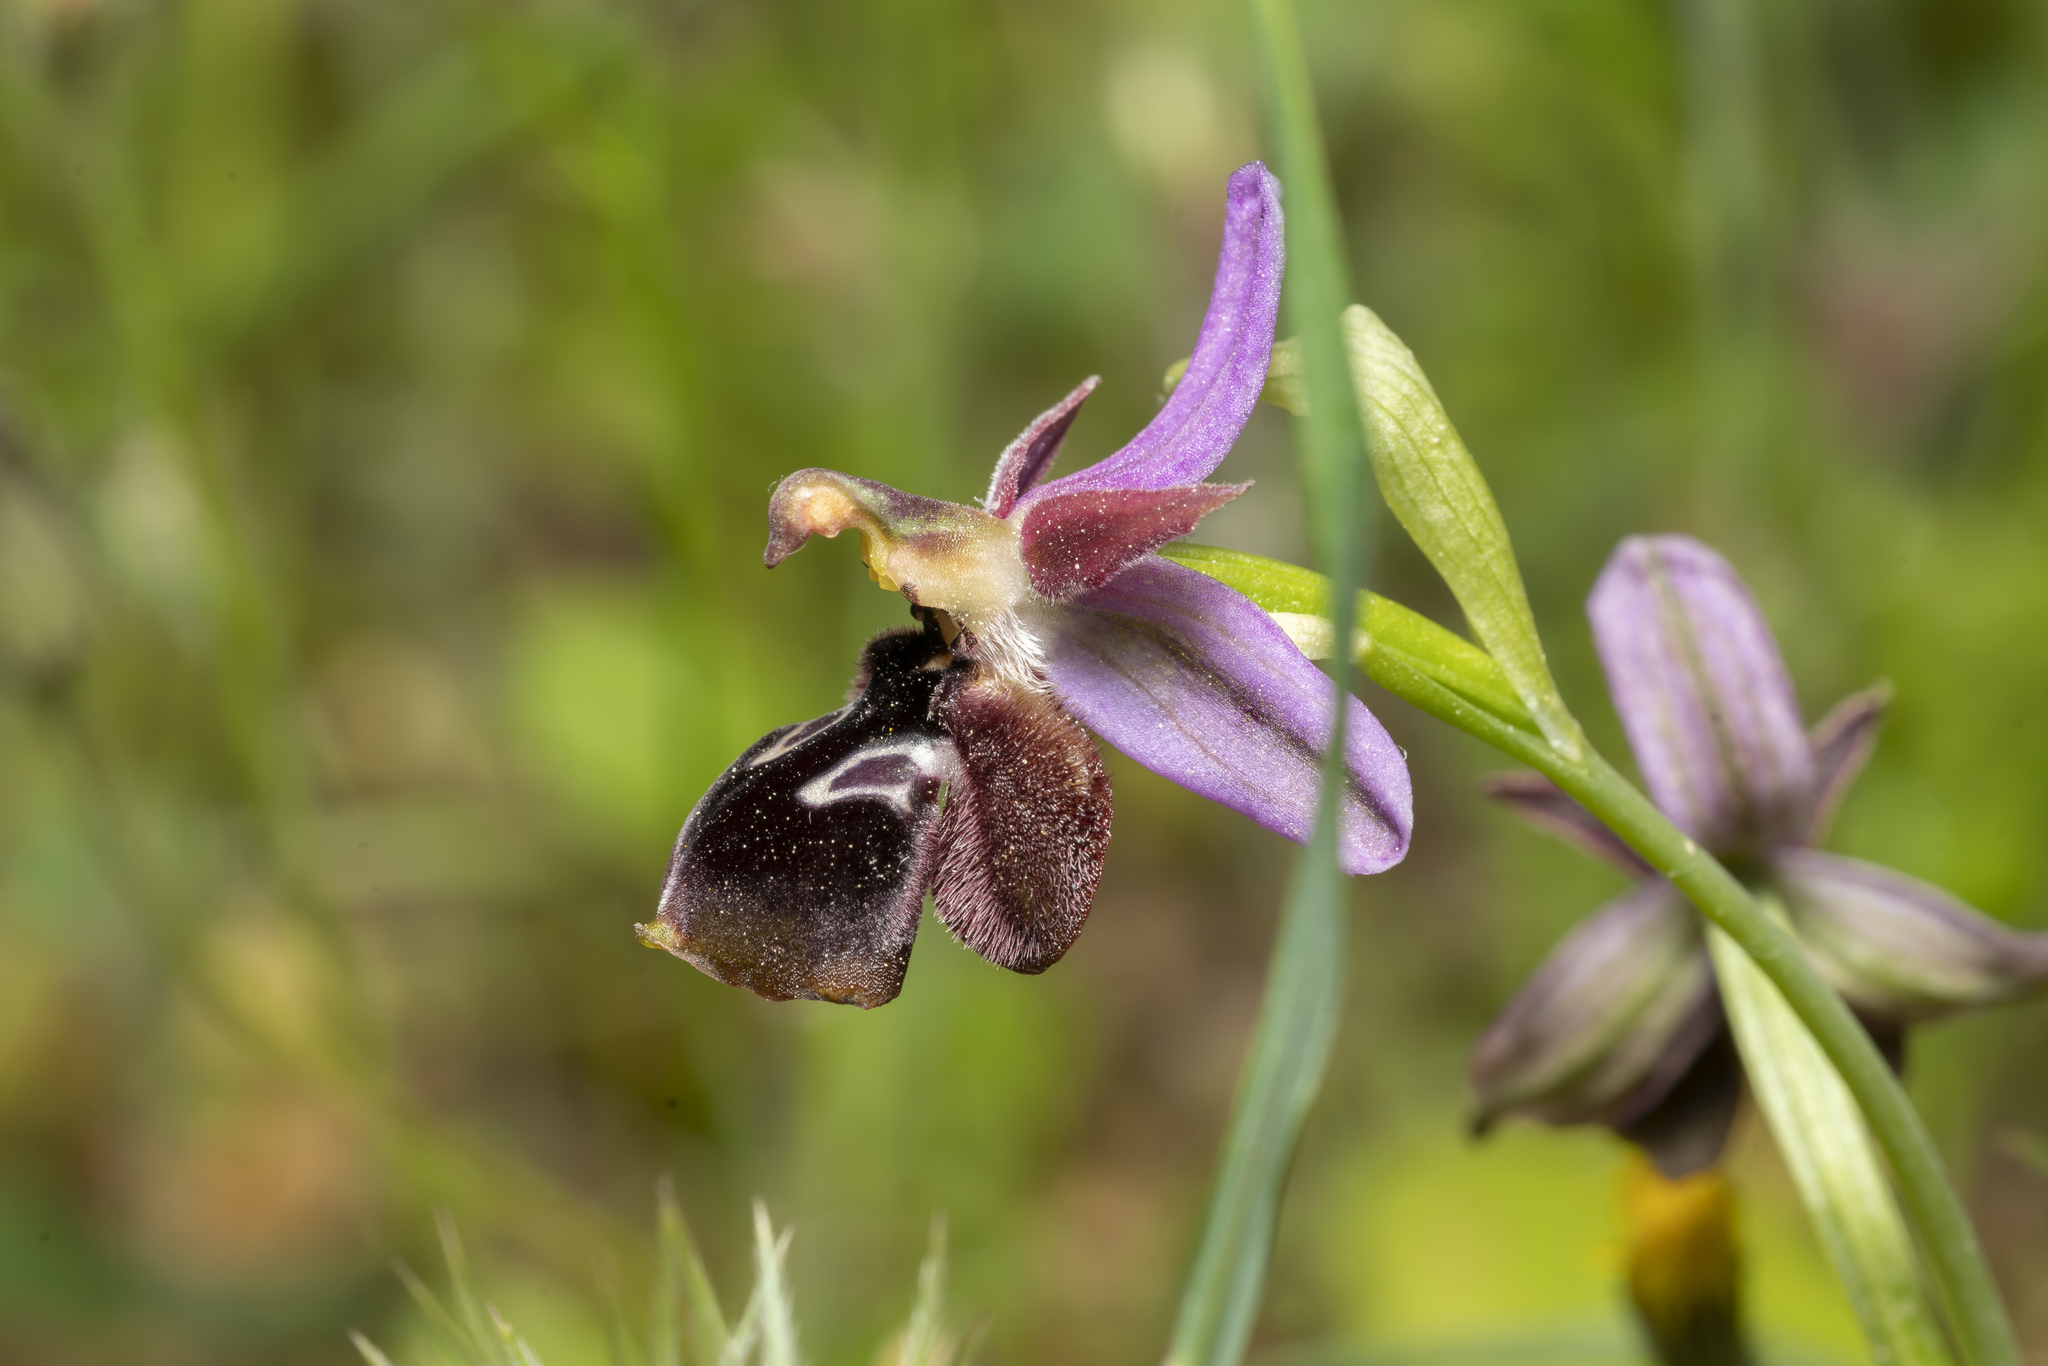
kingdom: Plantae
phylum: Tracheophyta
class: Liliopsida
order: Asparagales
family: Orchidaceae
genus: Ophrys
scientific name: Ophrys reinholdii
